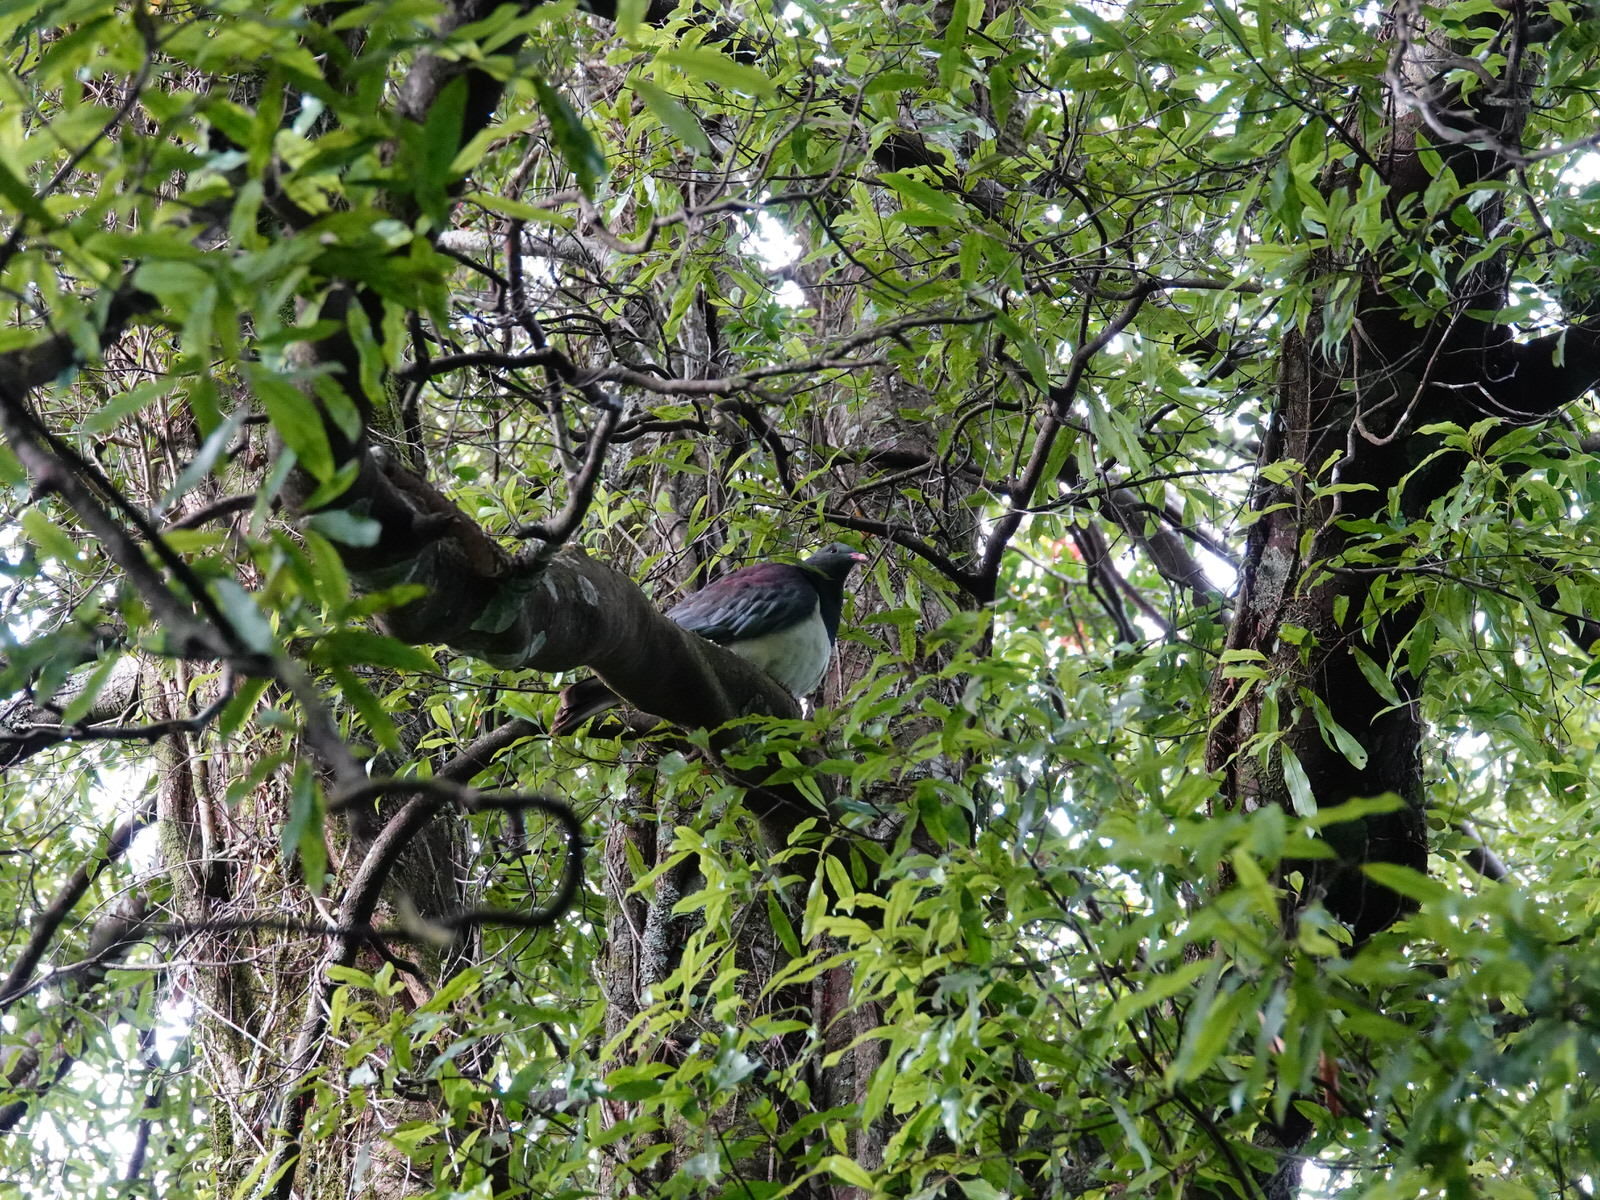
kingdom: Animalia
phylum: Chordata
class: Aves
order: Columbiformes
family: Columbidae
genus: Hemiphaga
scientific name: Hemiphaga novaeseelandiae
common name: New zealand pigeon
